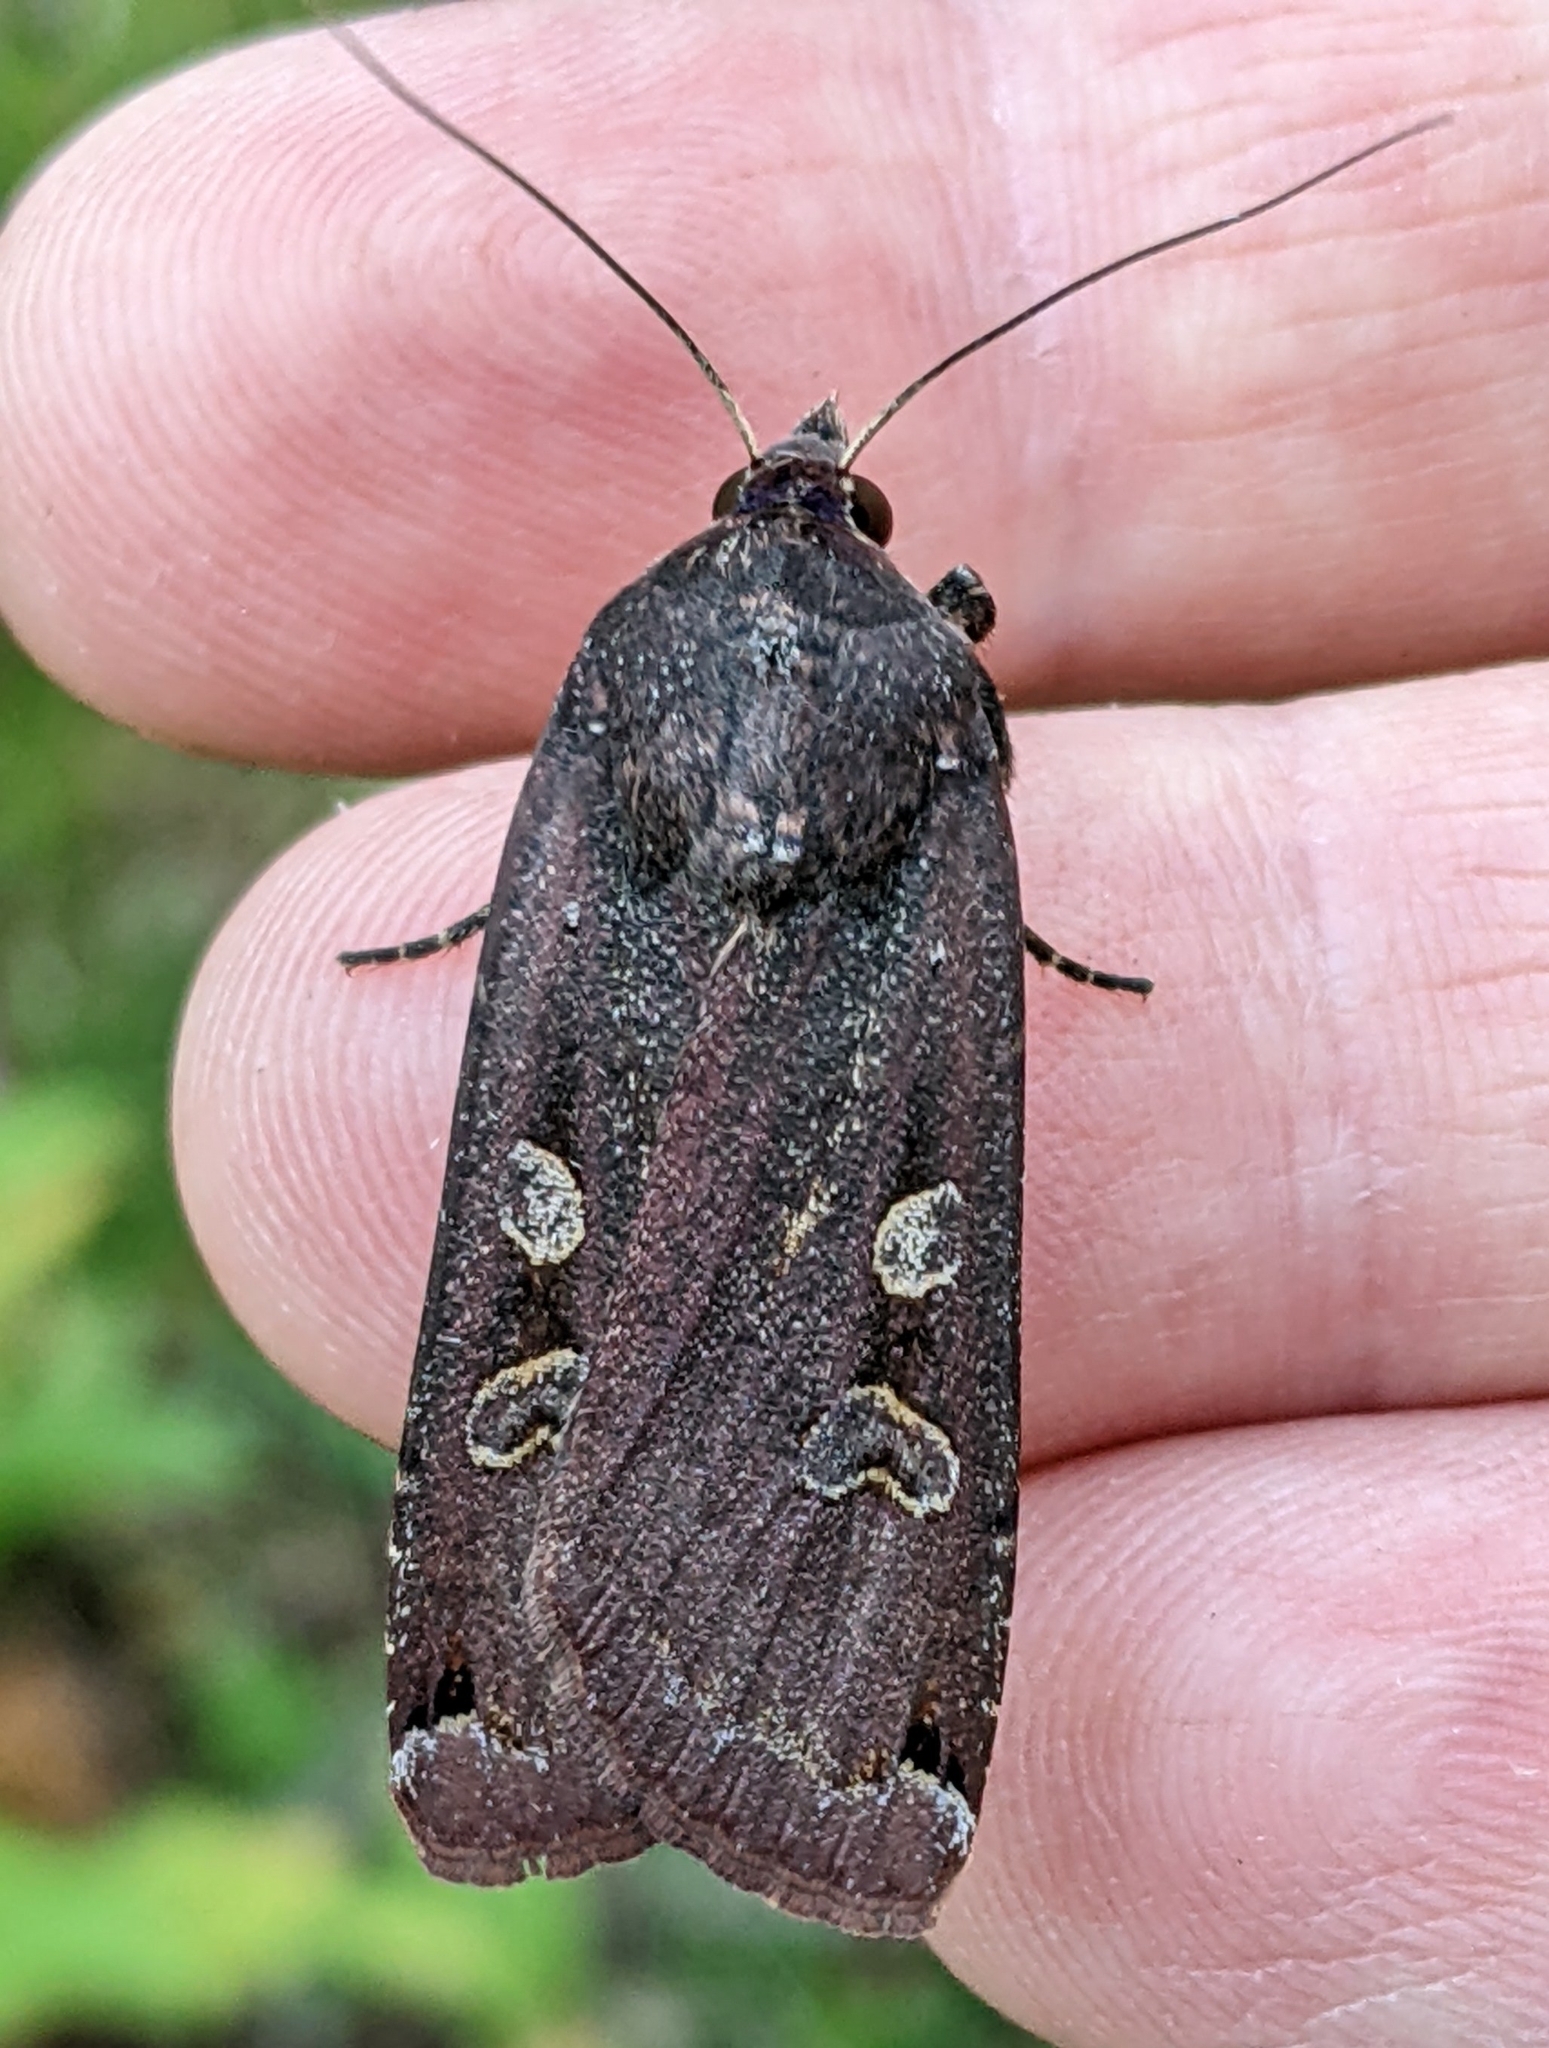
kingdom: Animalia
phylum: Arthropoda
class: Insecta
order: Lepidoptera
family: Noctuidae
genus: Noctua
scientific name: Noctua pronuba
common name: Large yellow underwing
